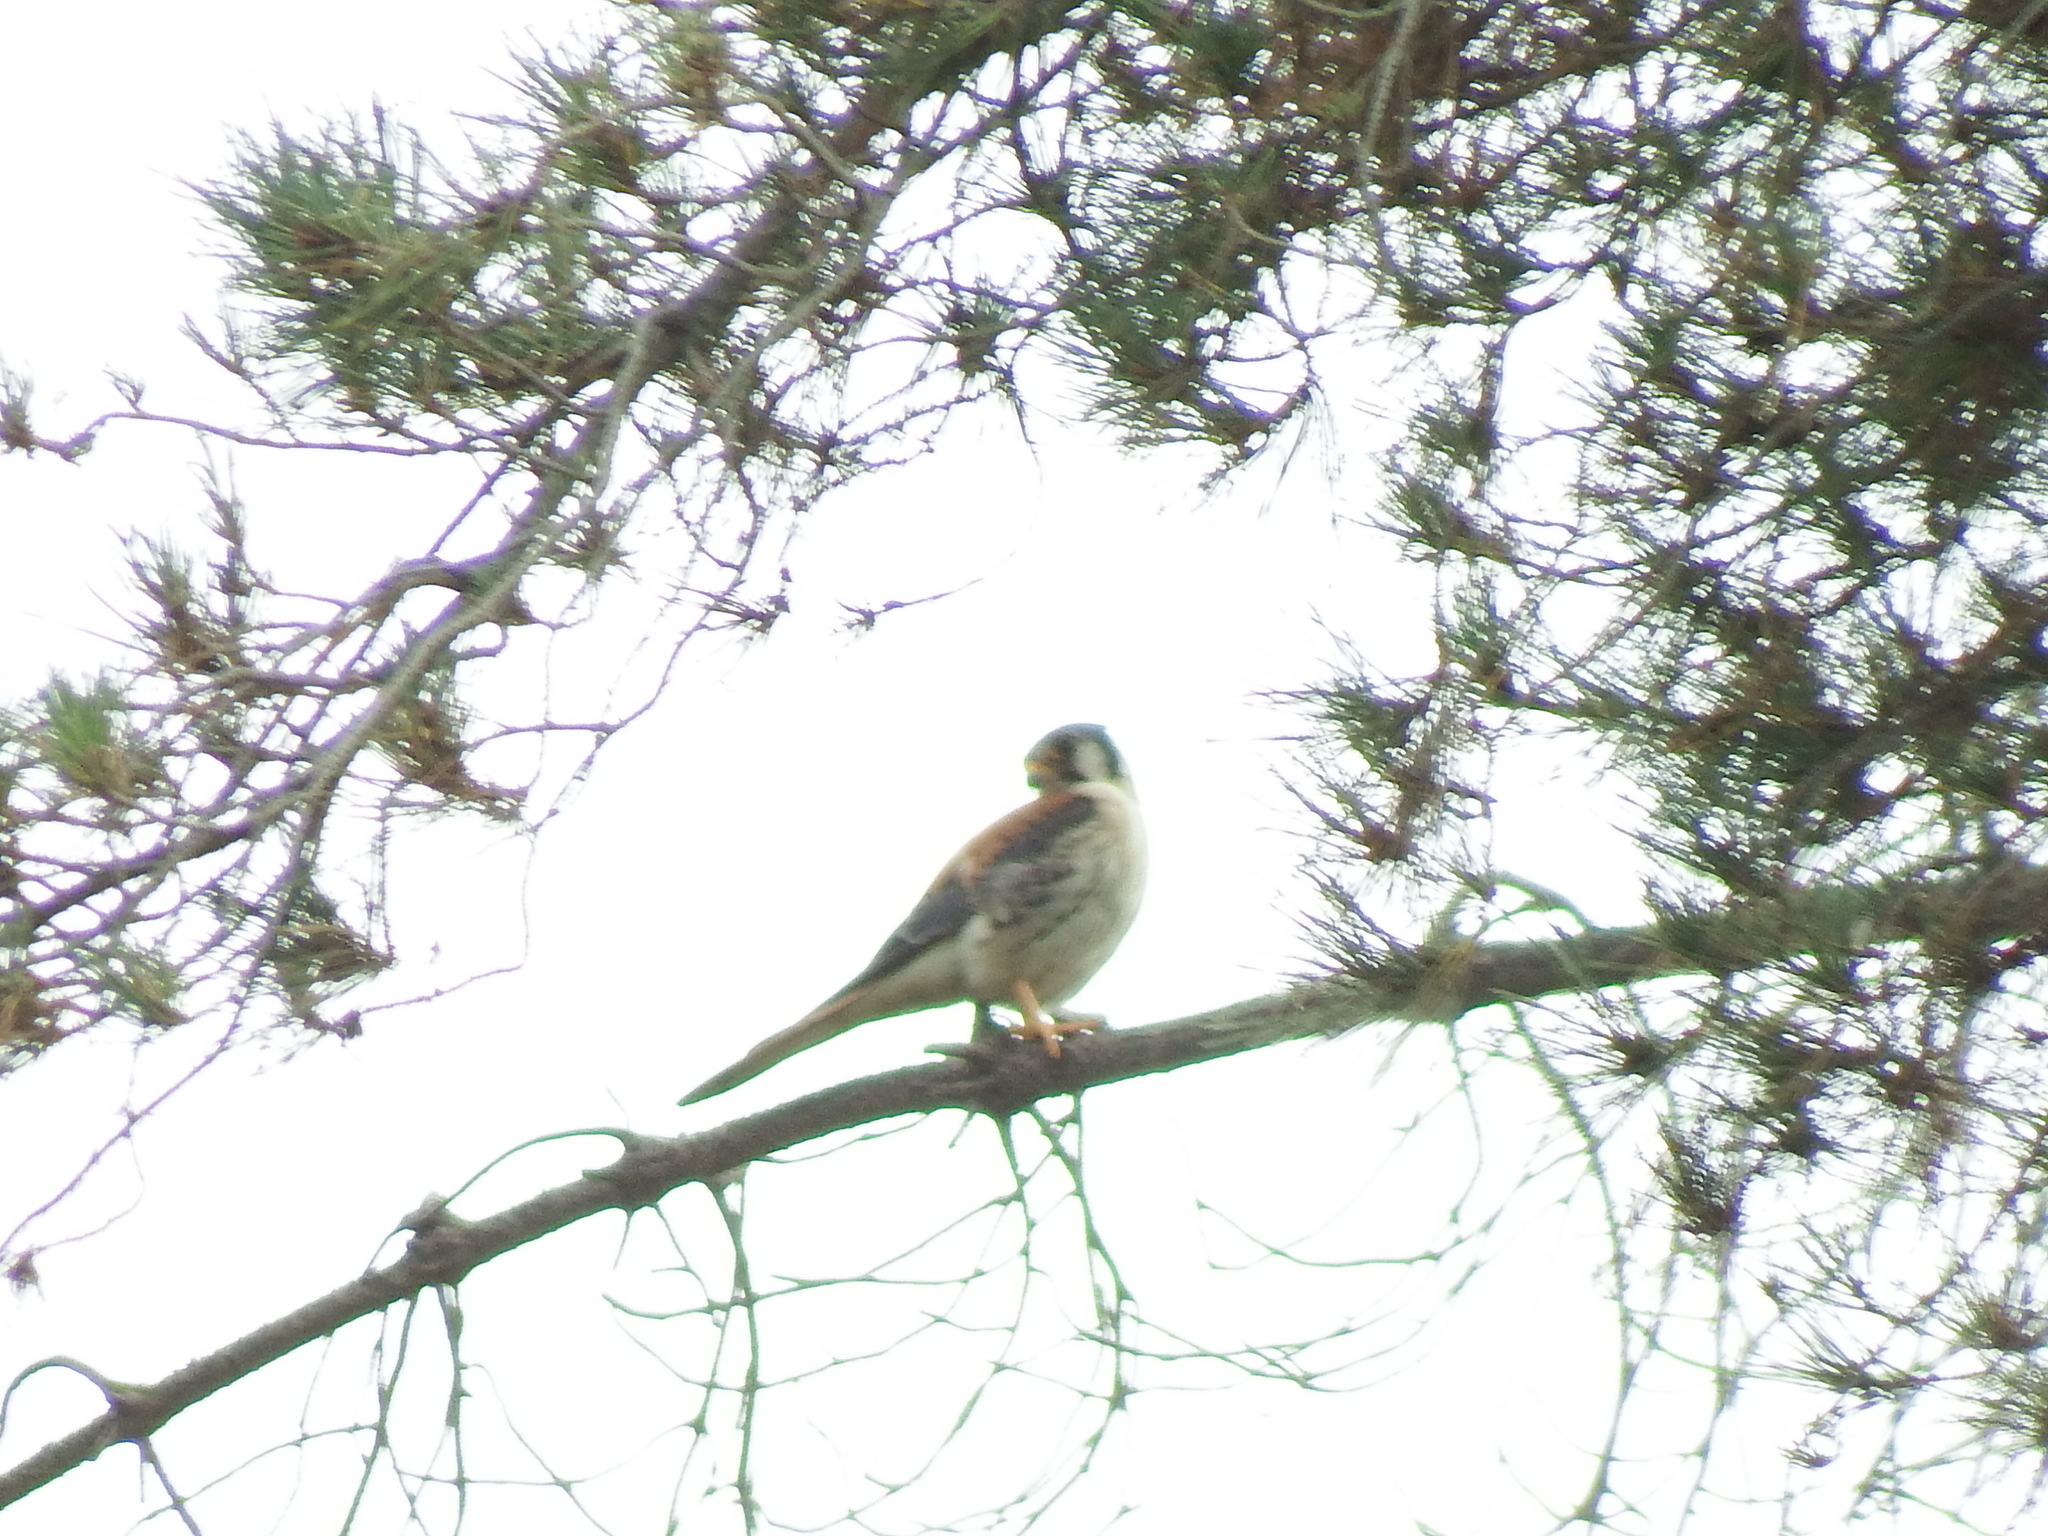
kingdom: Animalia
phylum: Chordata
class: Aves
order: Falconiformes
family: Falconidae
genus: Falco
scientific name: Falco sparverius
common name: American kestrel
